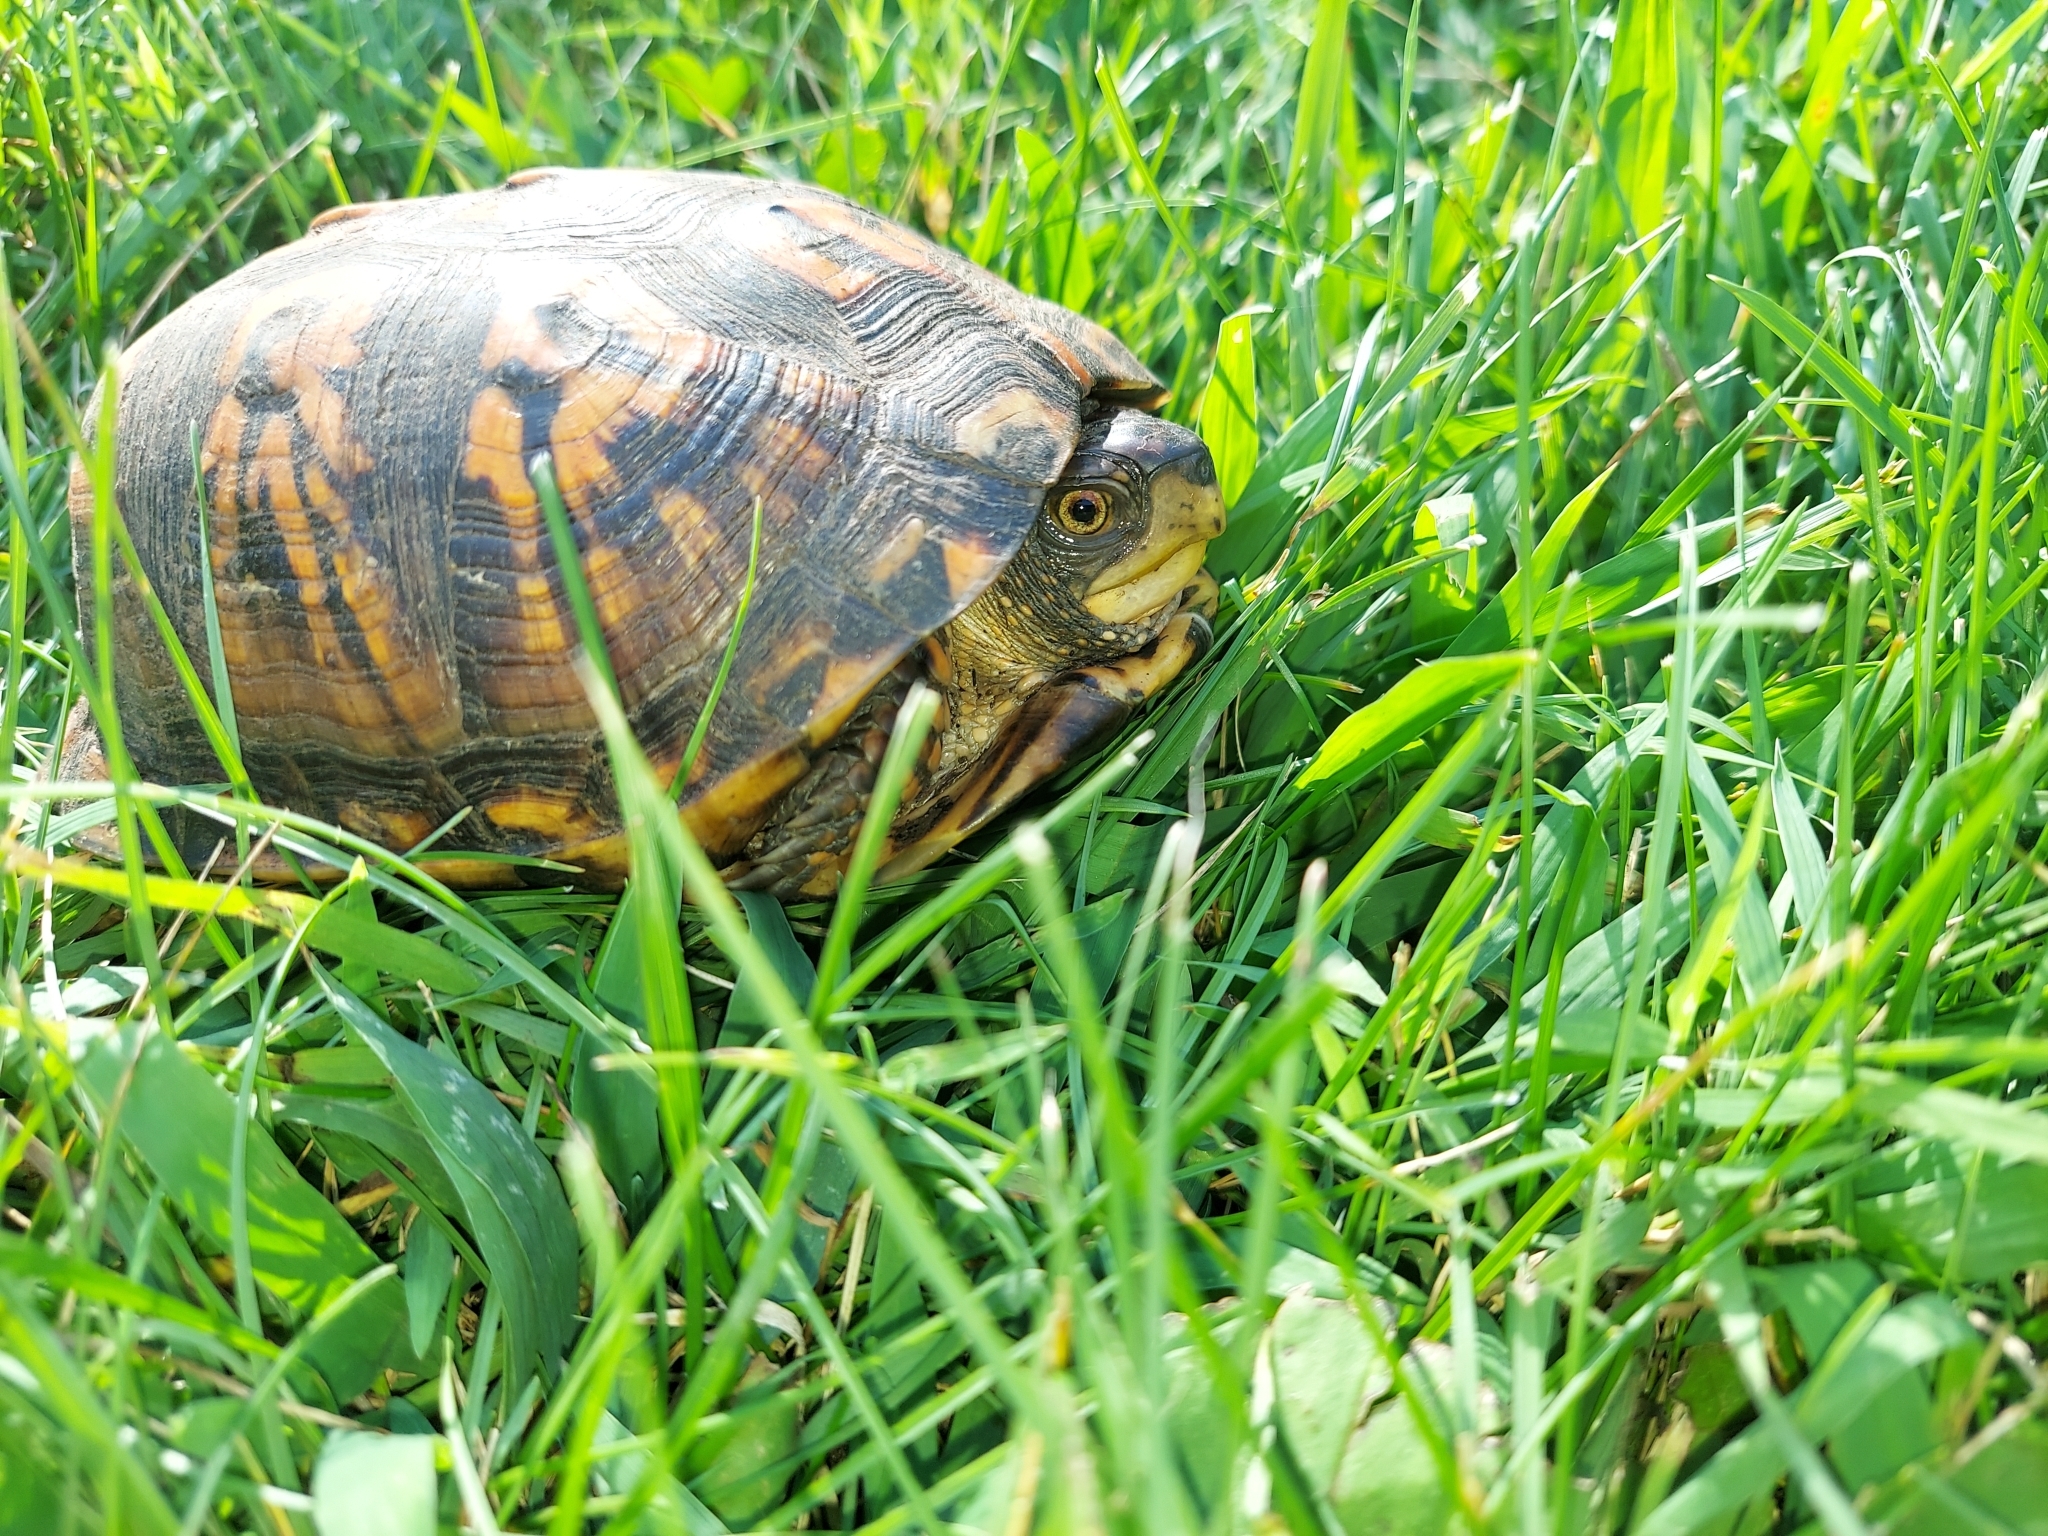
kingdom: Animalia
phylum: Chordata
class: Testudines
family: Emydidae
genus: Terrapene
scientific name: Terrapene carolina
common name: Common box turtle
